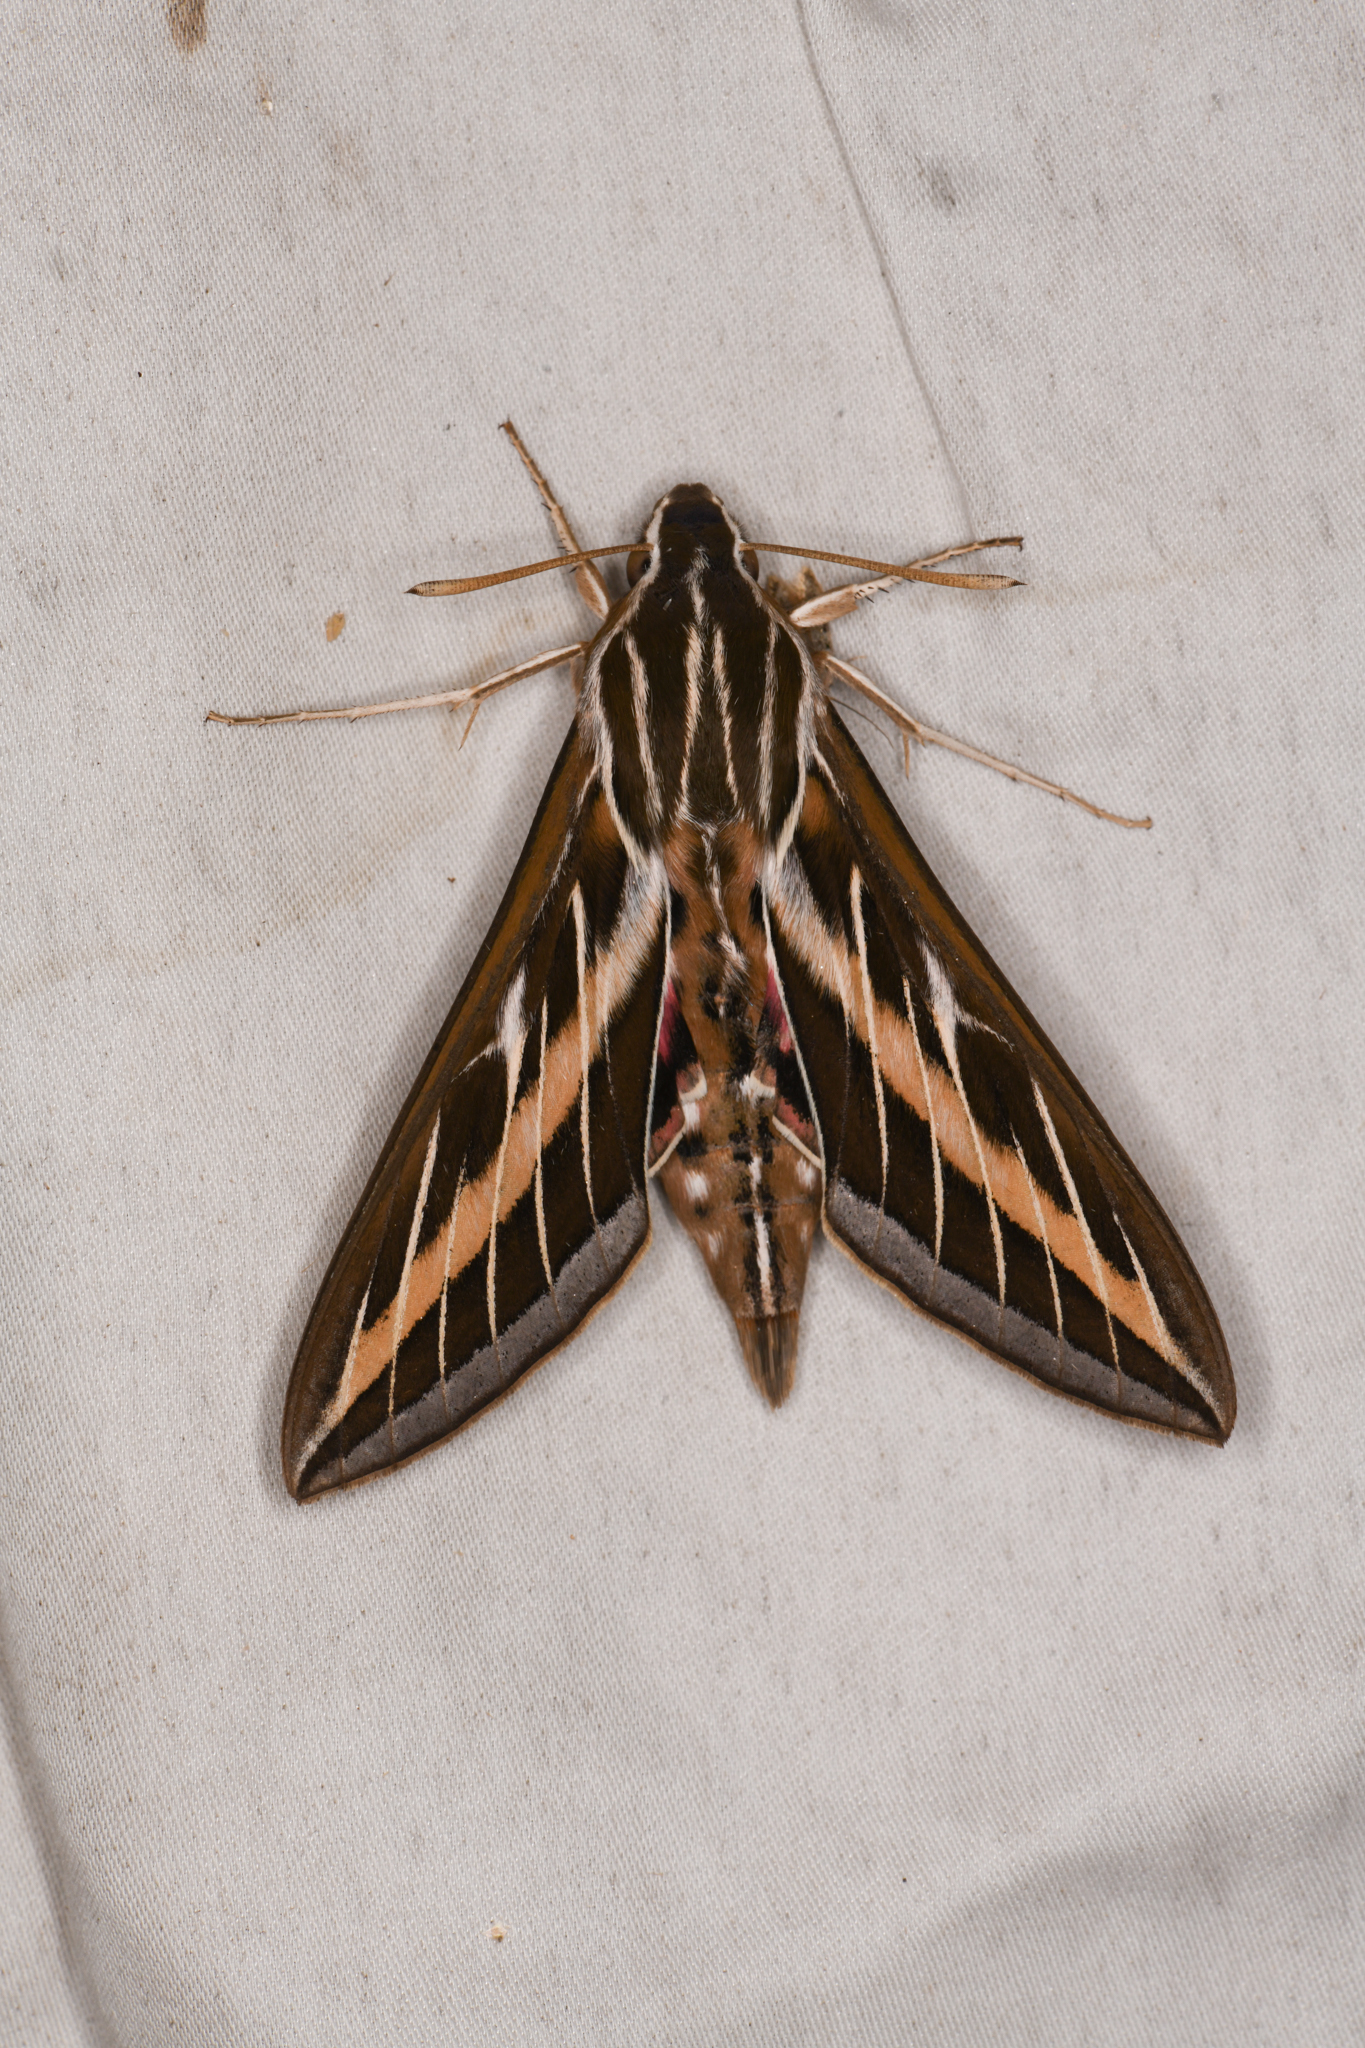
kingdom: Animalia
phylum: Arthropoda
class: Insecta
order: Lepidoptera
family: Sphingidae
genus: Hyles
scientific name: Hyles lineata
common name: White-lined sphinx
